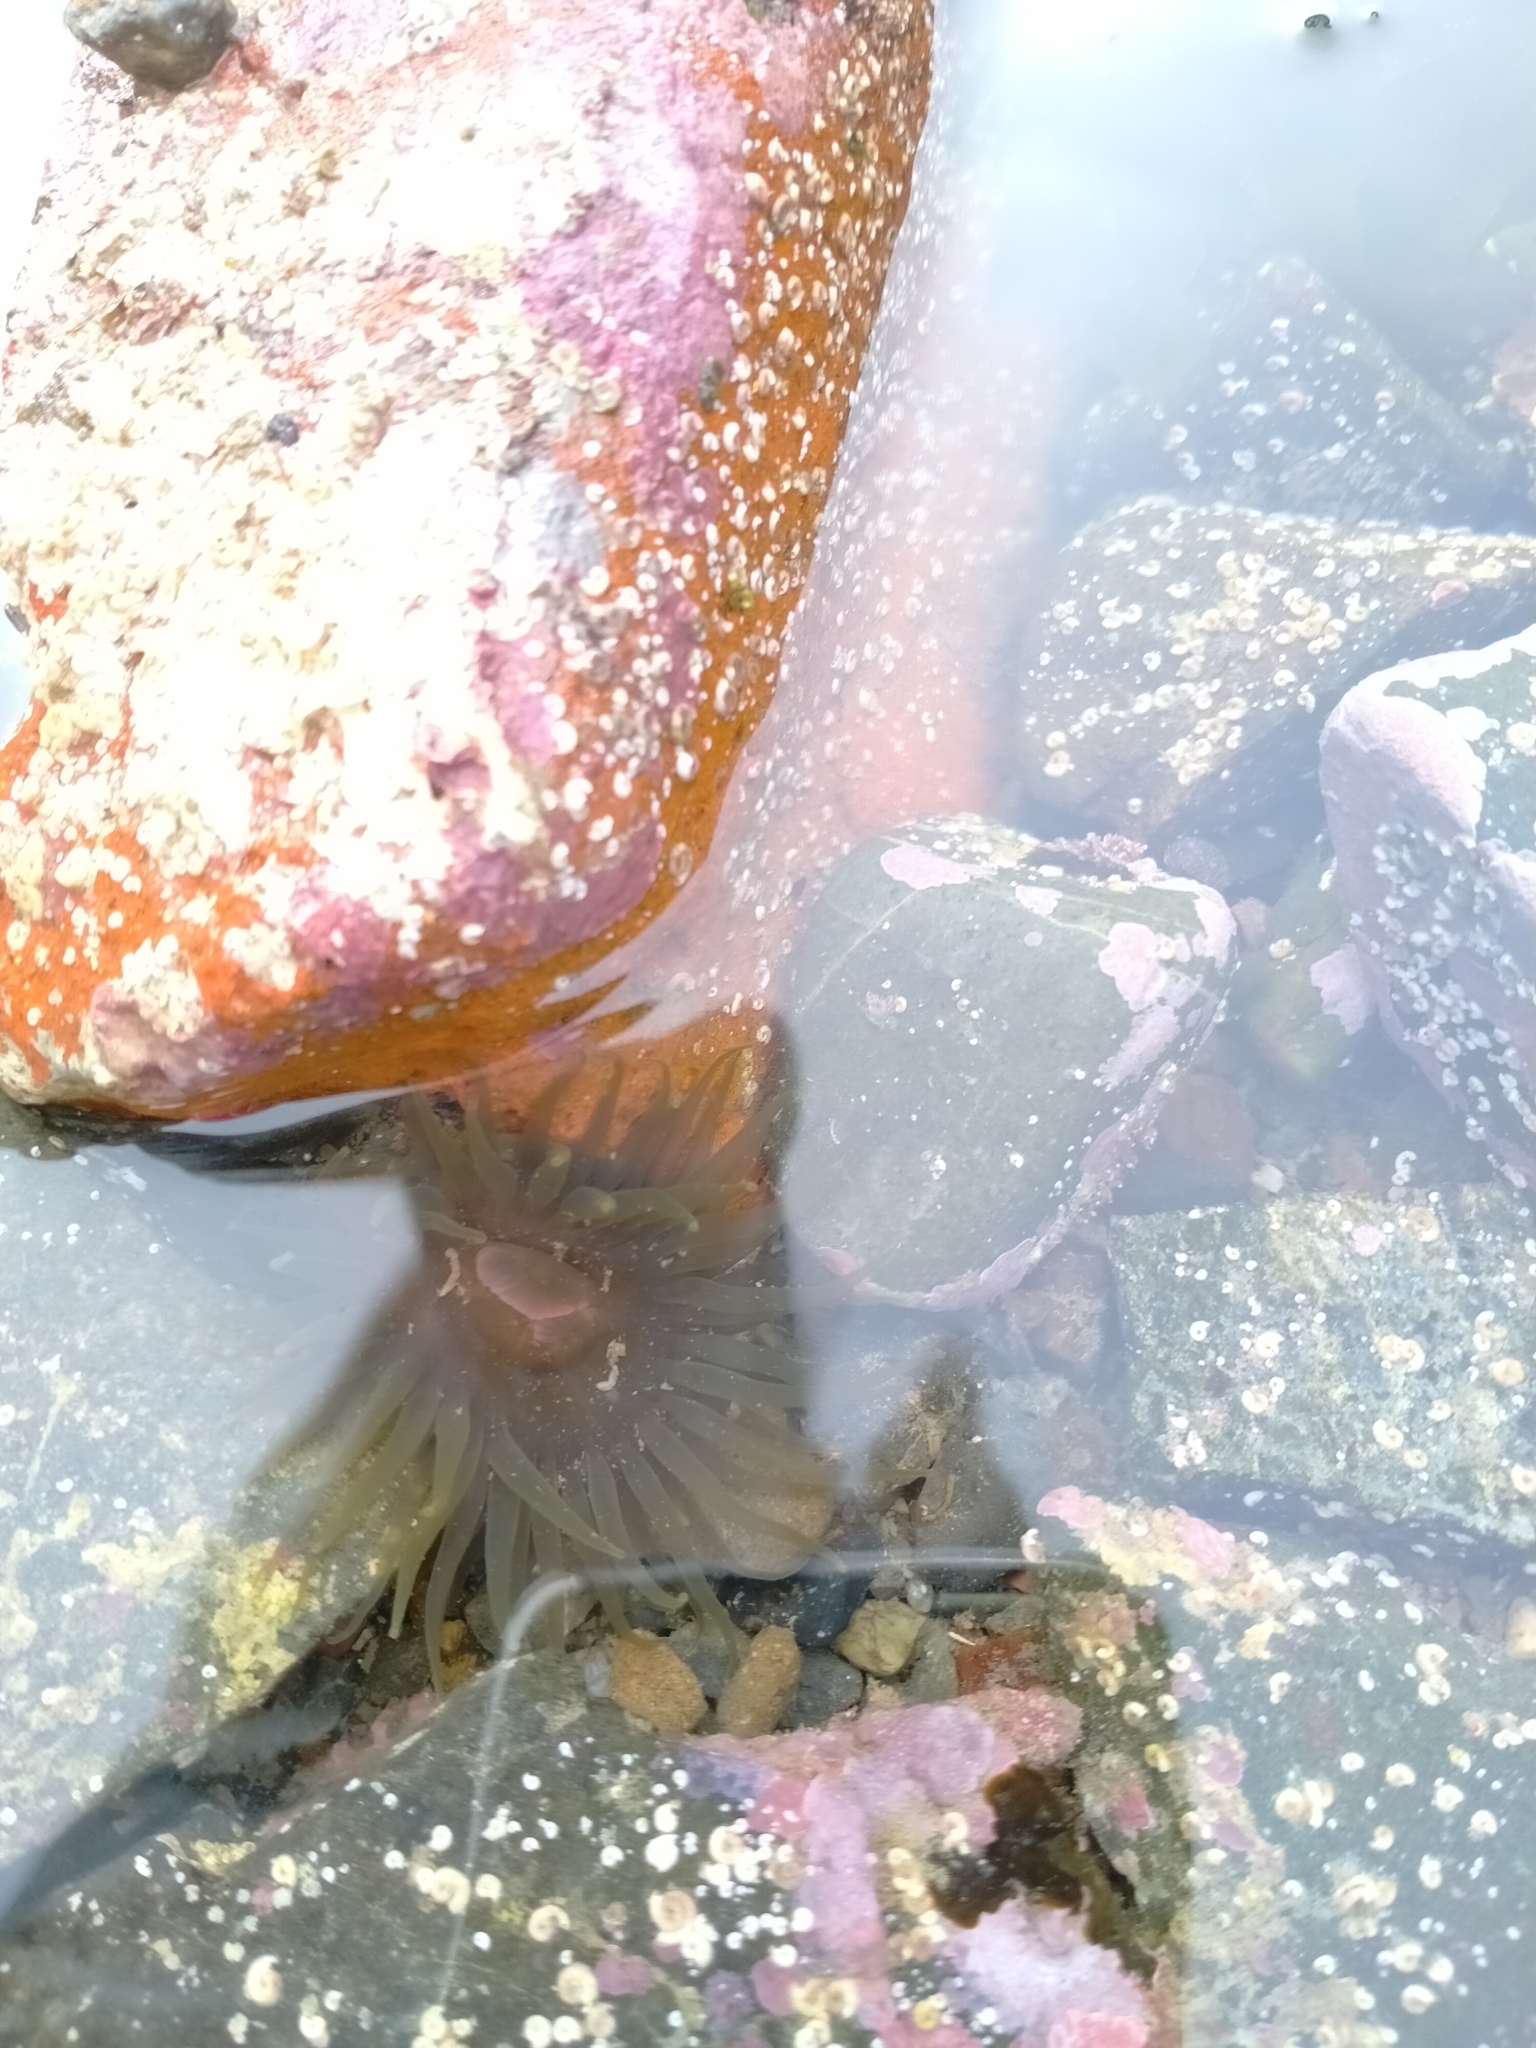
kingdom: Animalia
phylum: Cnidaria
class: Anthozoa
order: Actiniaria
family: Actiniidae
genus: Isactinia
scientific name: Isactinia olivacea
